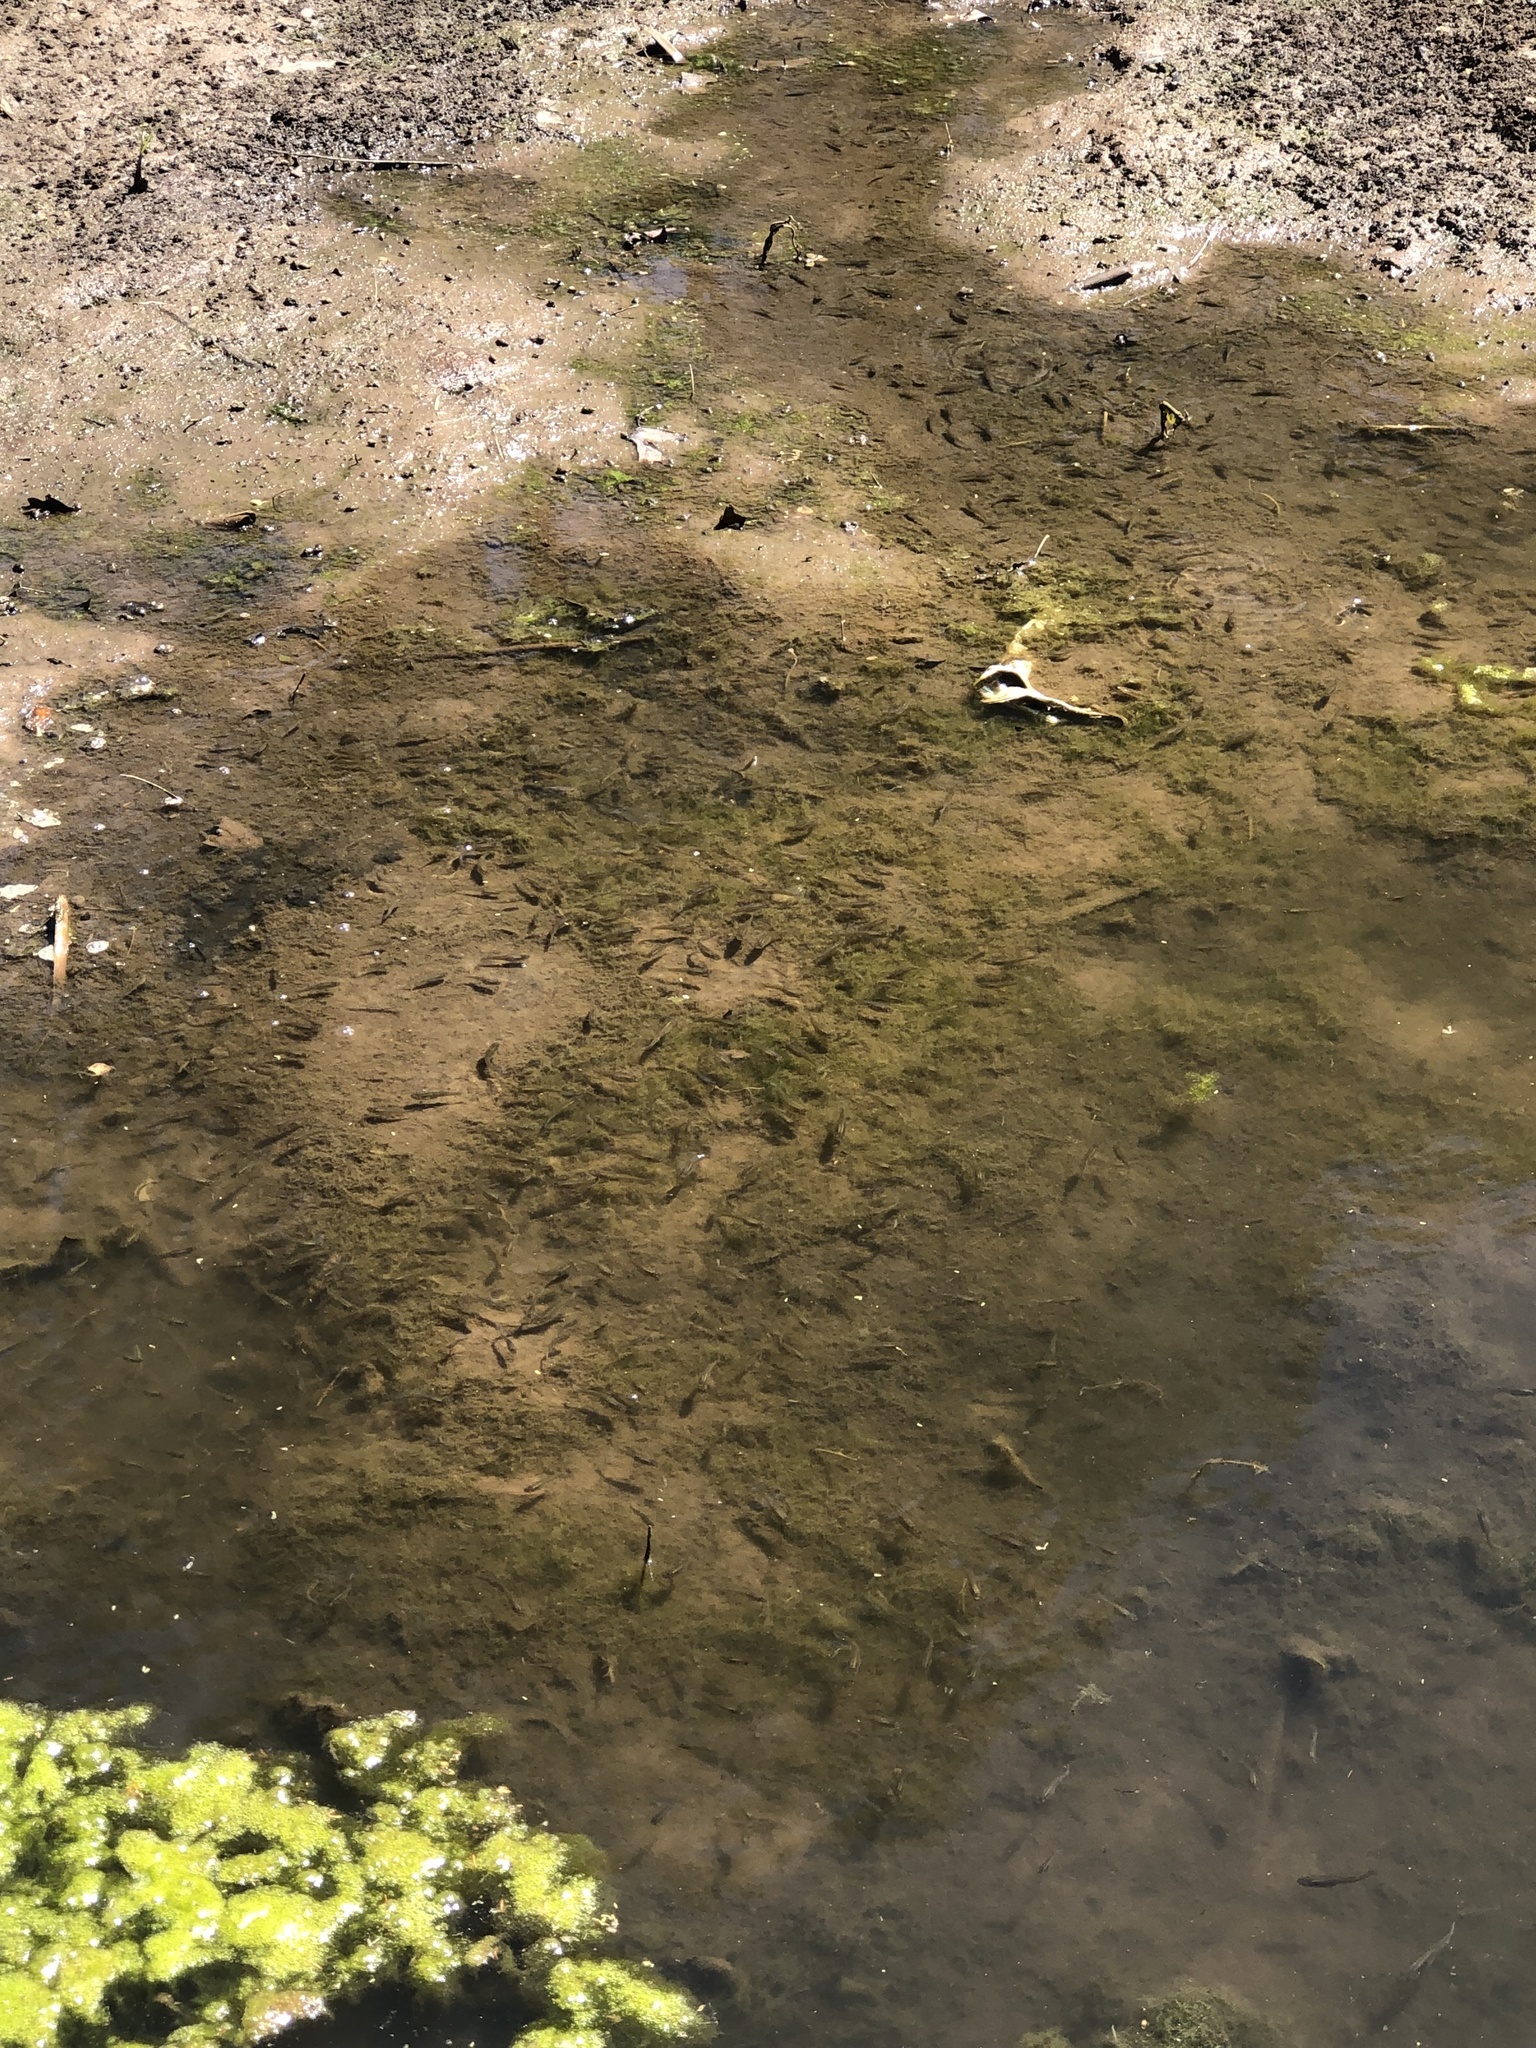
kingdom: Animalia
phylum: Chordata
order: Cyprinodontiformes
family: Poeciliidae
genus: Gambusia
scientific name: Gambusia affinis
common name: Mosquitofish
